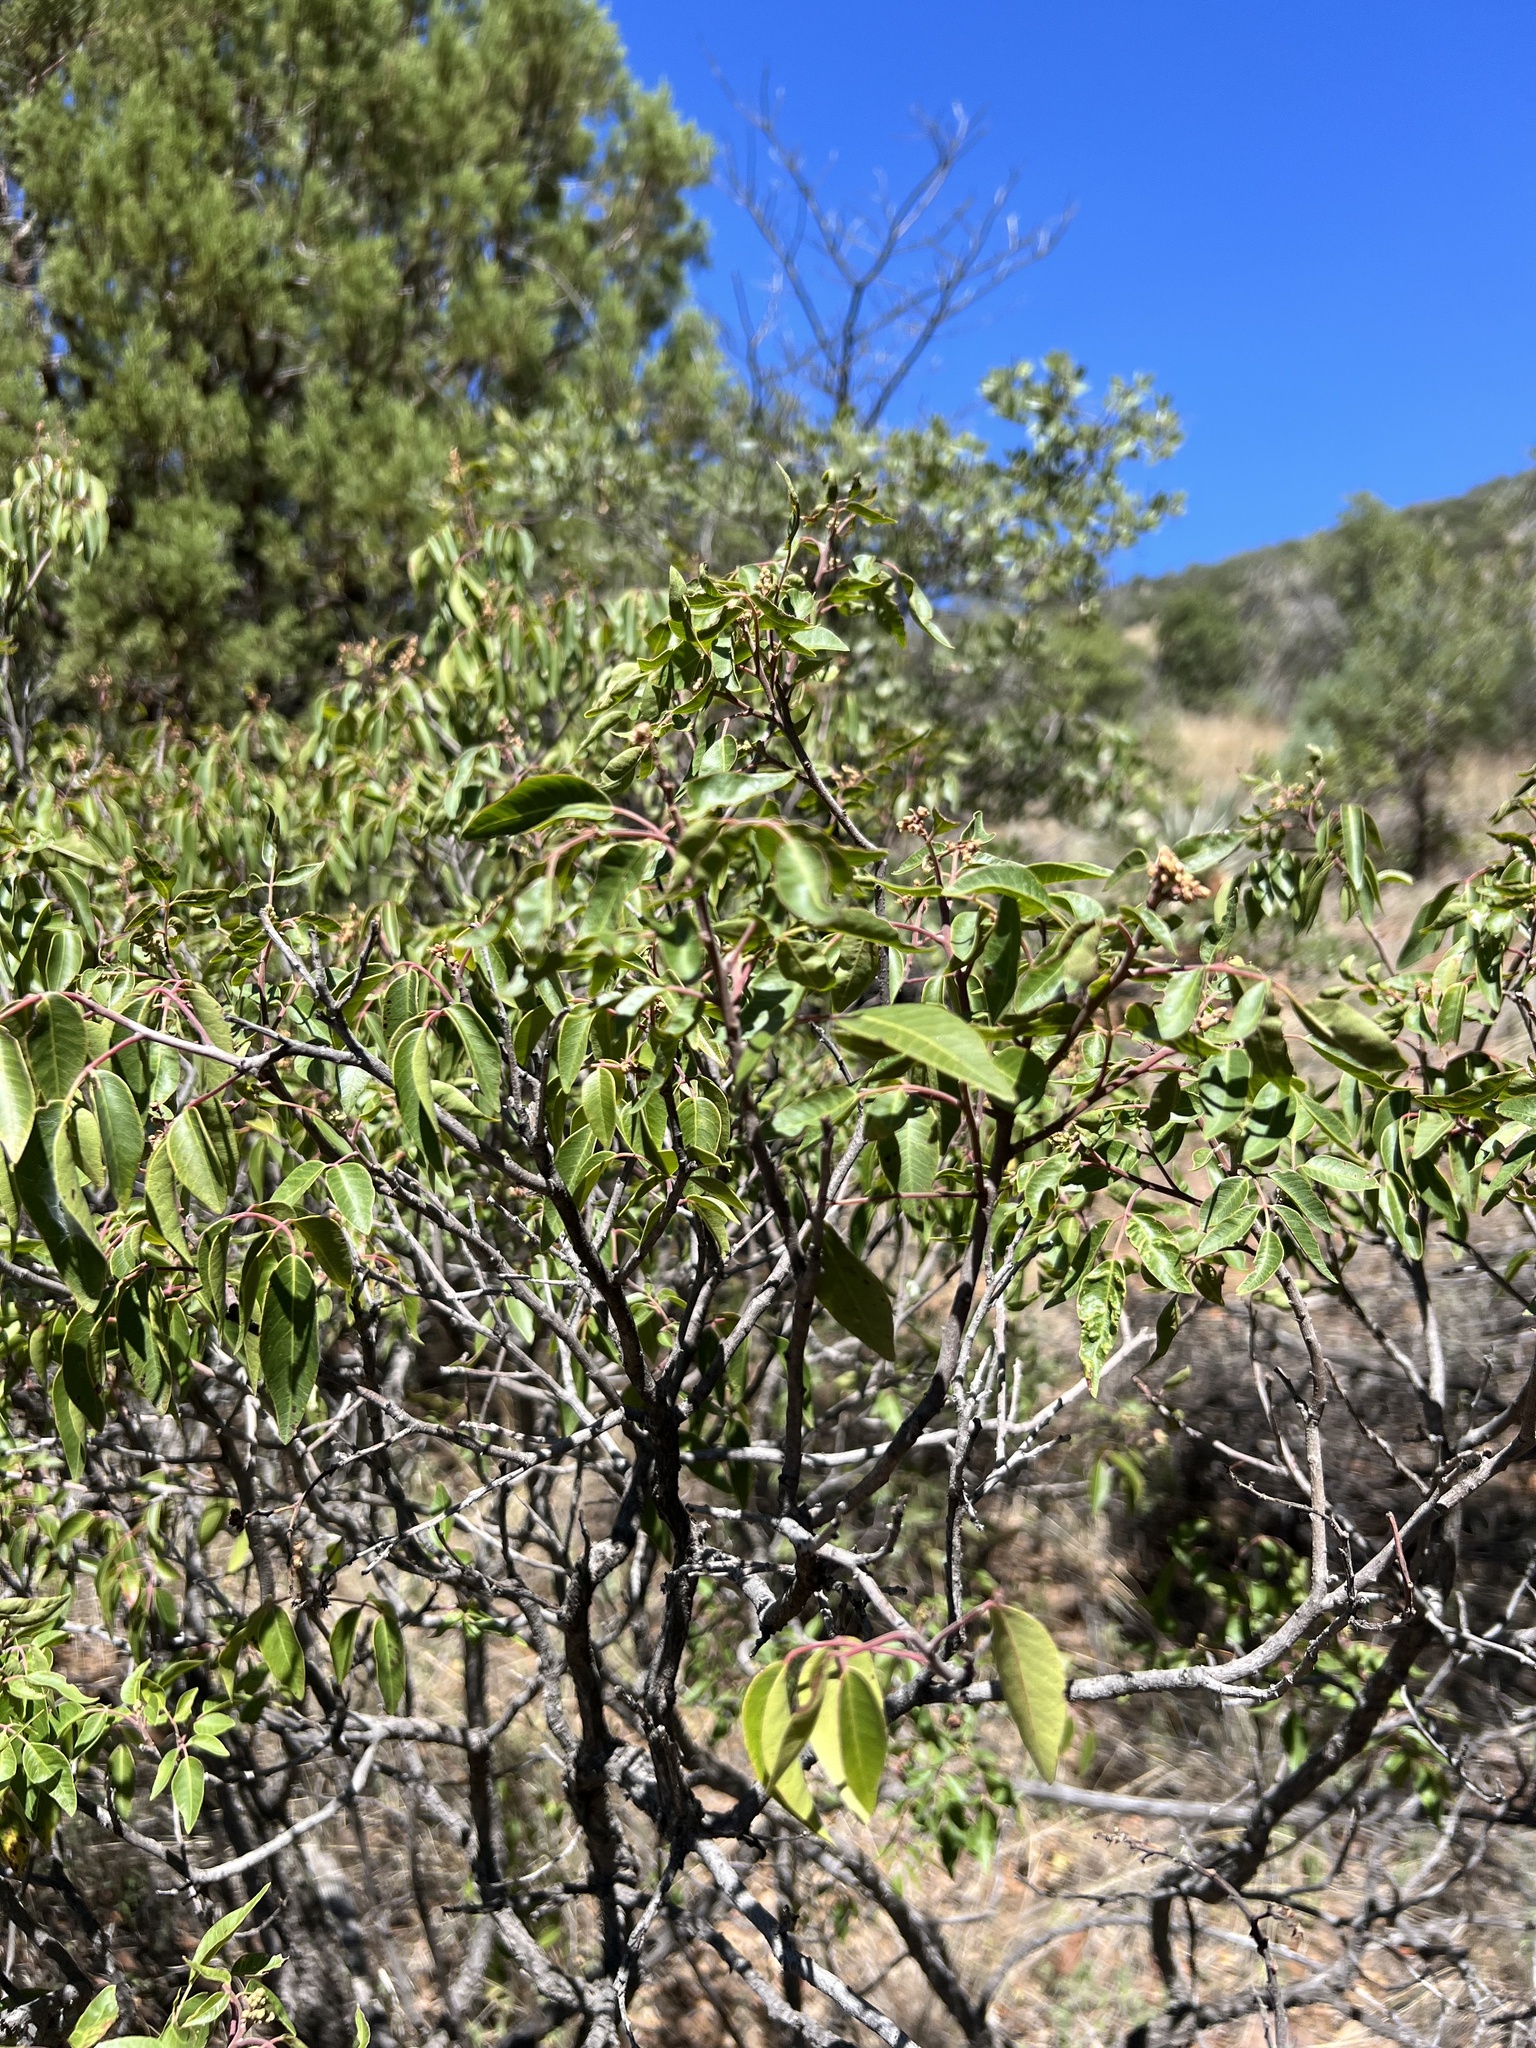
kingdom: Plantae
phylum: Tracheophyta
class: Magnoliopsida
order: Sapindales
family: Anacardiaceae
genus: Rhus
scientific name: Rhus virens
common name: Evergreen sumac
